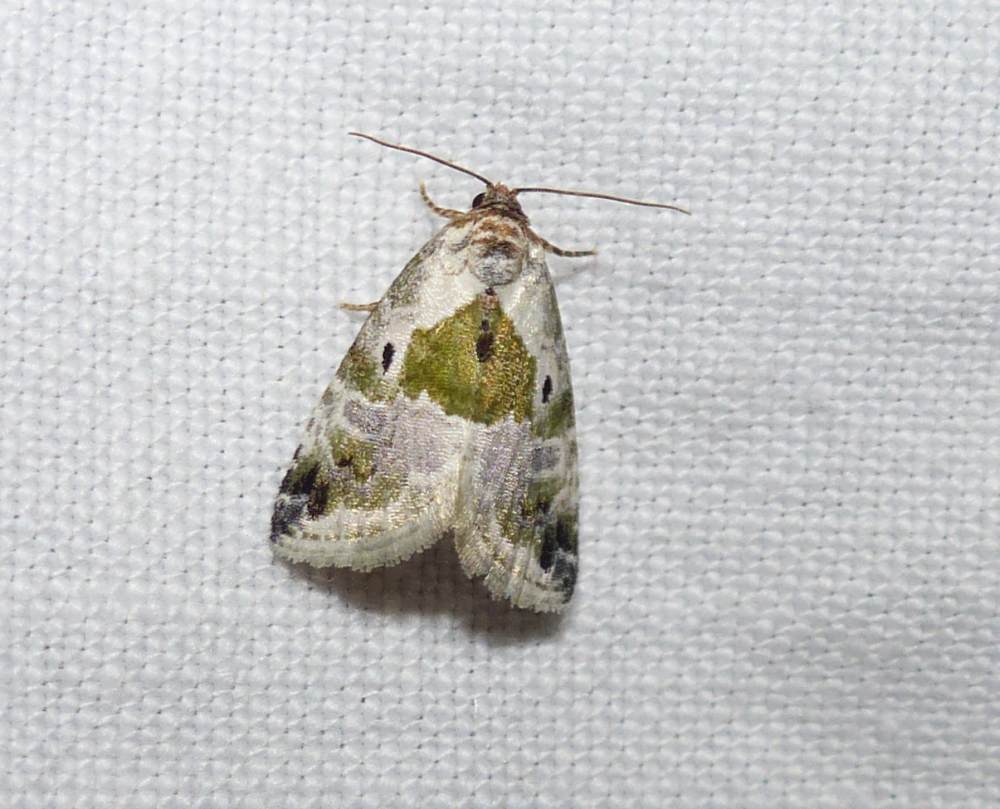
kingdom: Animalia
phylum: Arthropoda
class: Insecta
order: Lepidoptera
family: Noctuidae
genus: Maliattha
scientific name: Maliattha synochitis
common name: Black-dotted glyph
